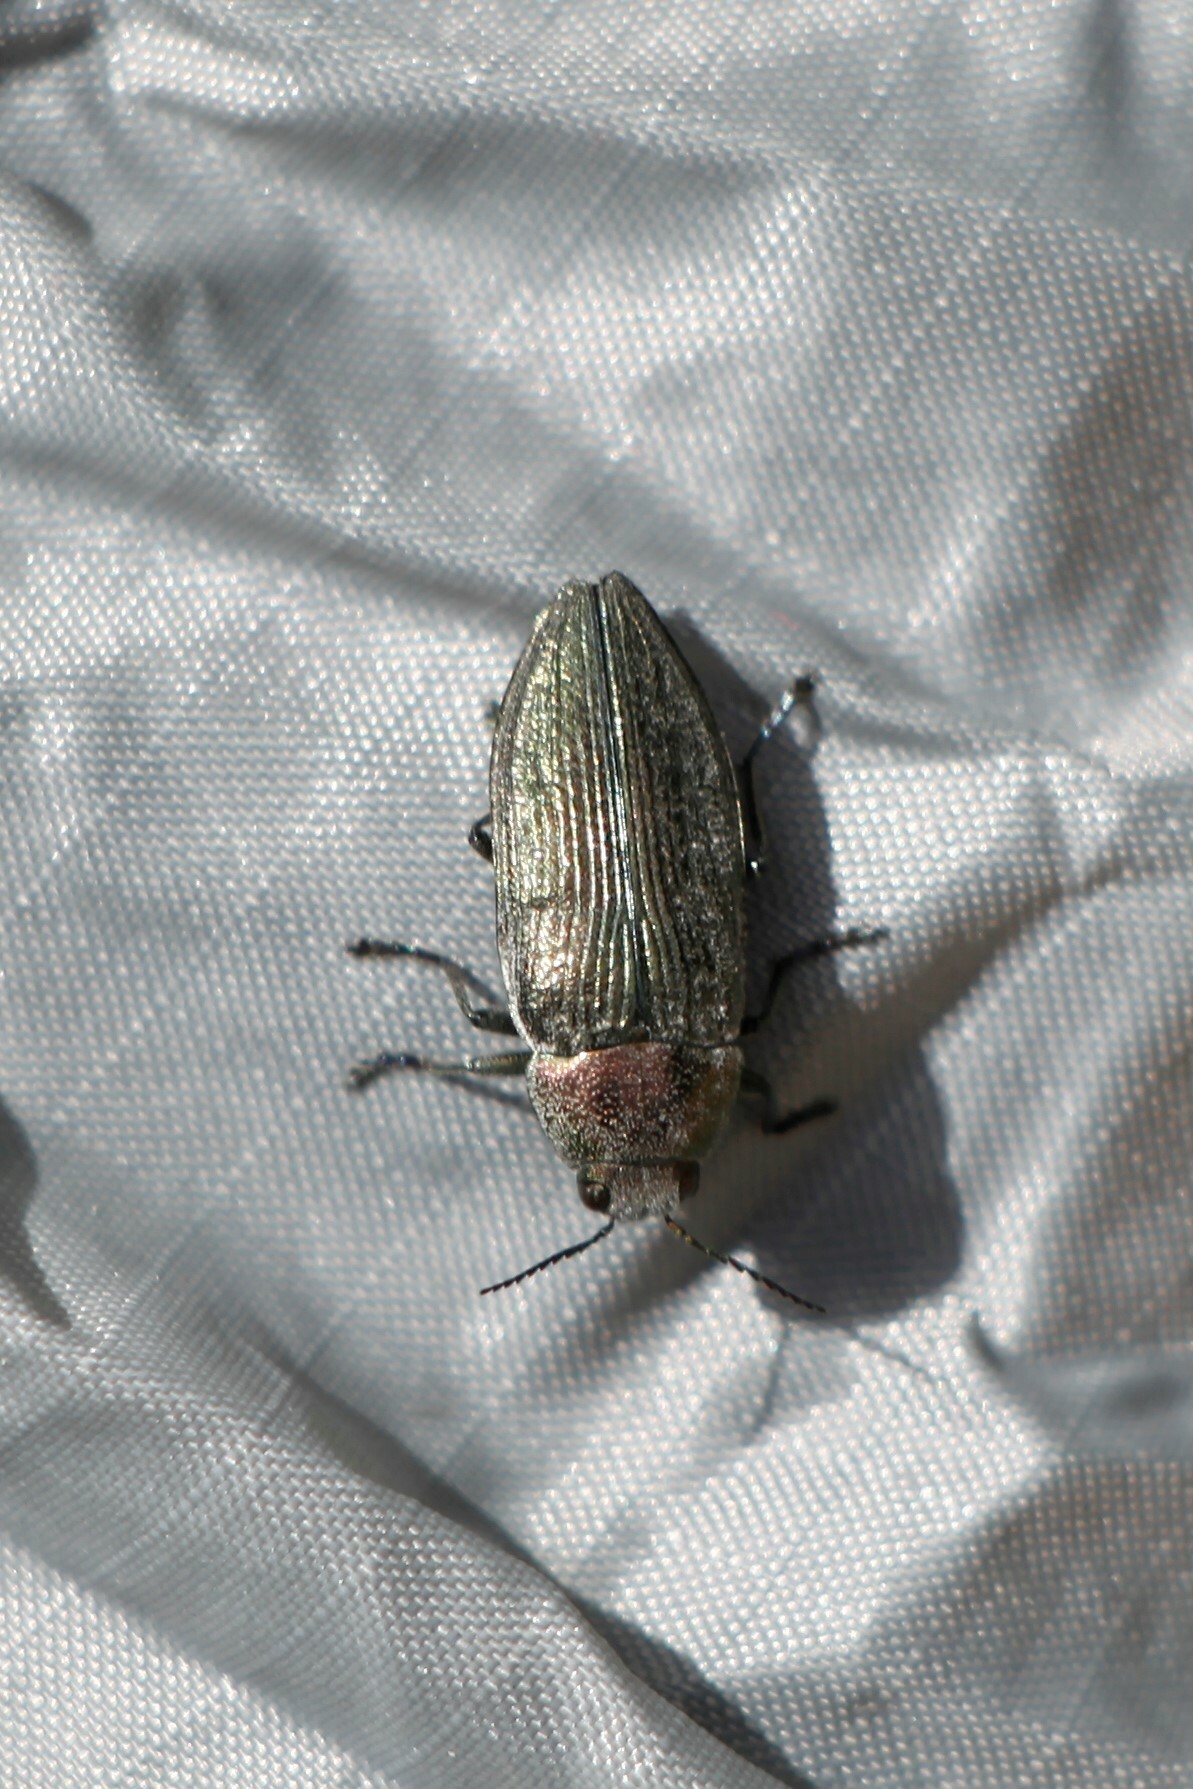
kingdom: Animalia
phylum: Arthropoda
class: Insecta
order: Coleoptera
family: Buprestidae
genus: Buprestis
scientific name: Buprestis rustica
